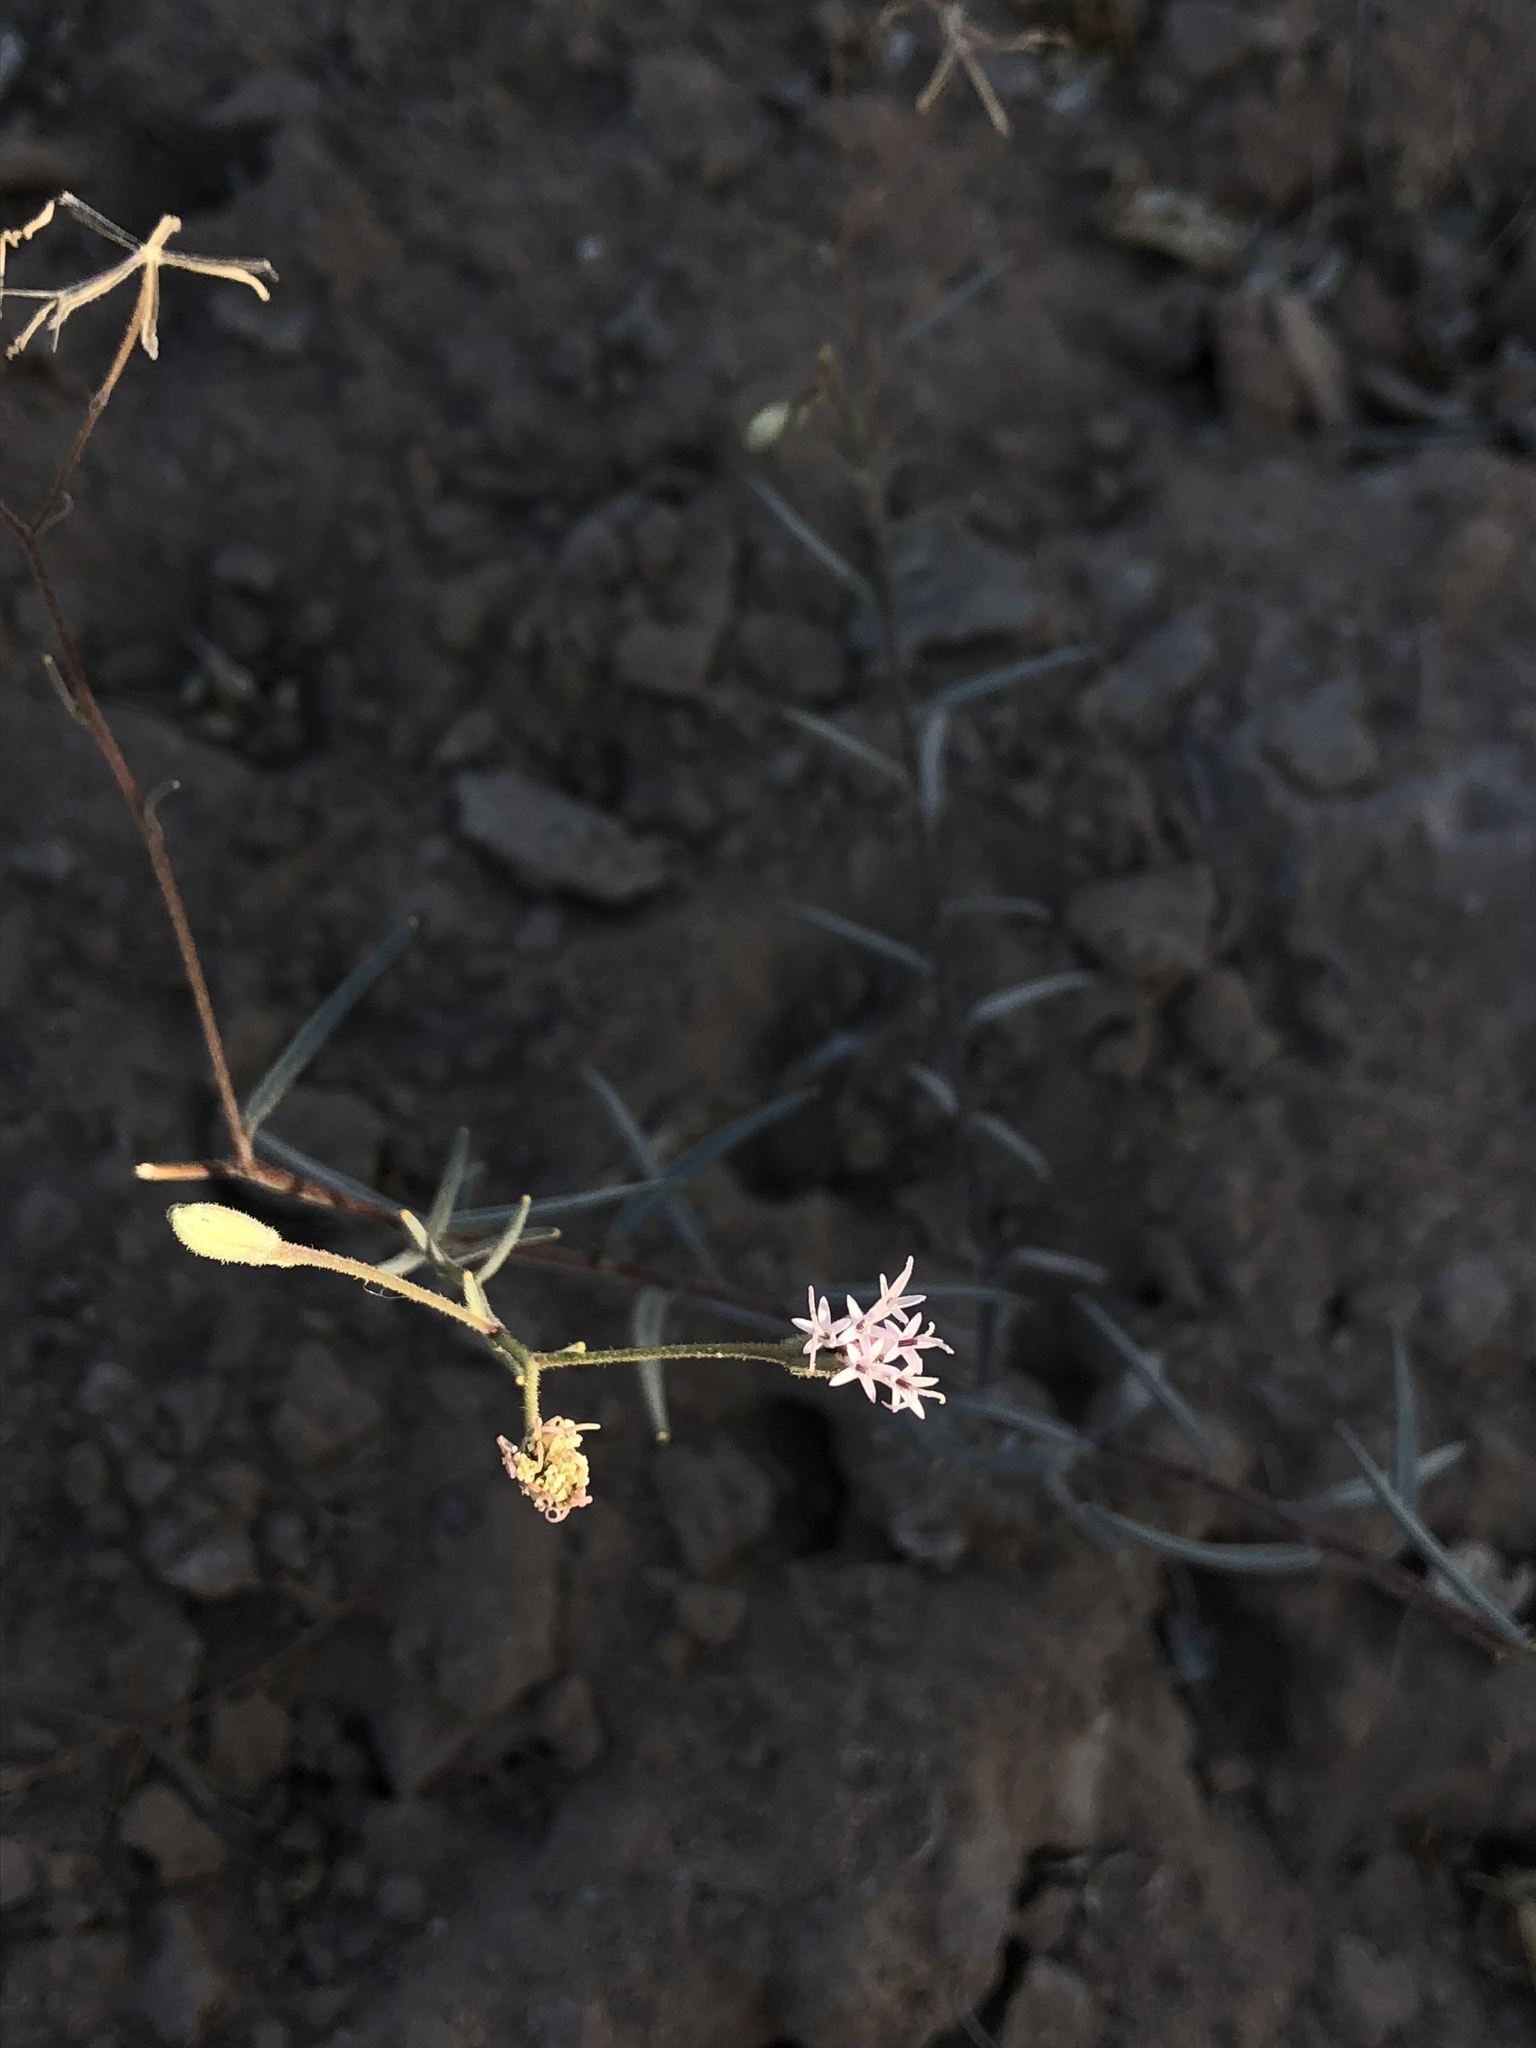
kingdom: Plantae
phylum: Tracheophyta
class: Magnoliopsida
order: Asterales
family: Asteraceae
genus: Palafoxia
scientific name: Palafoxia arida
